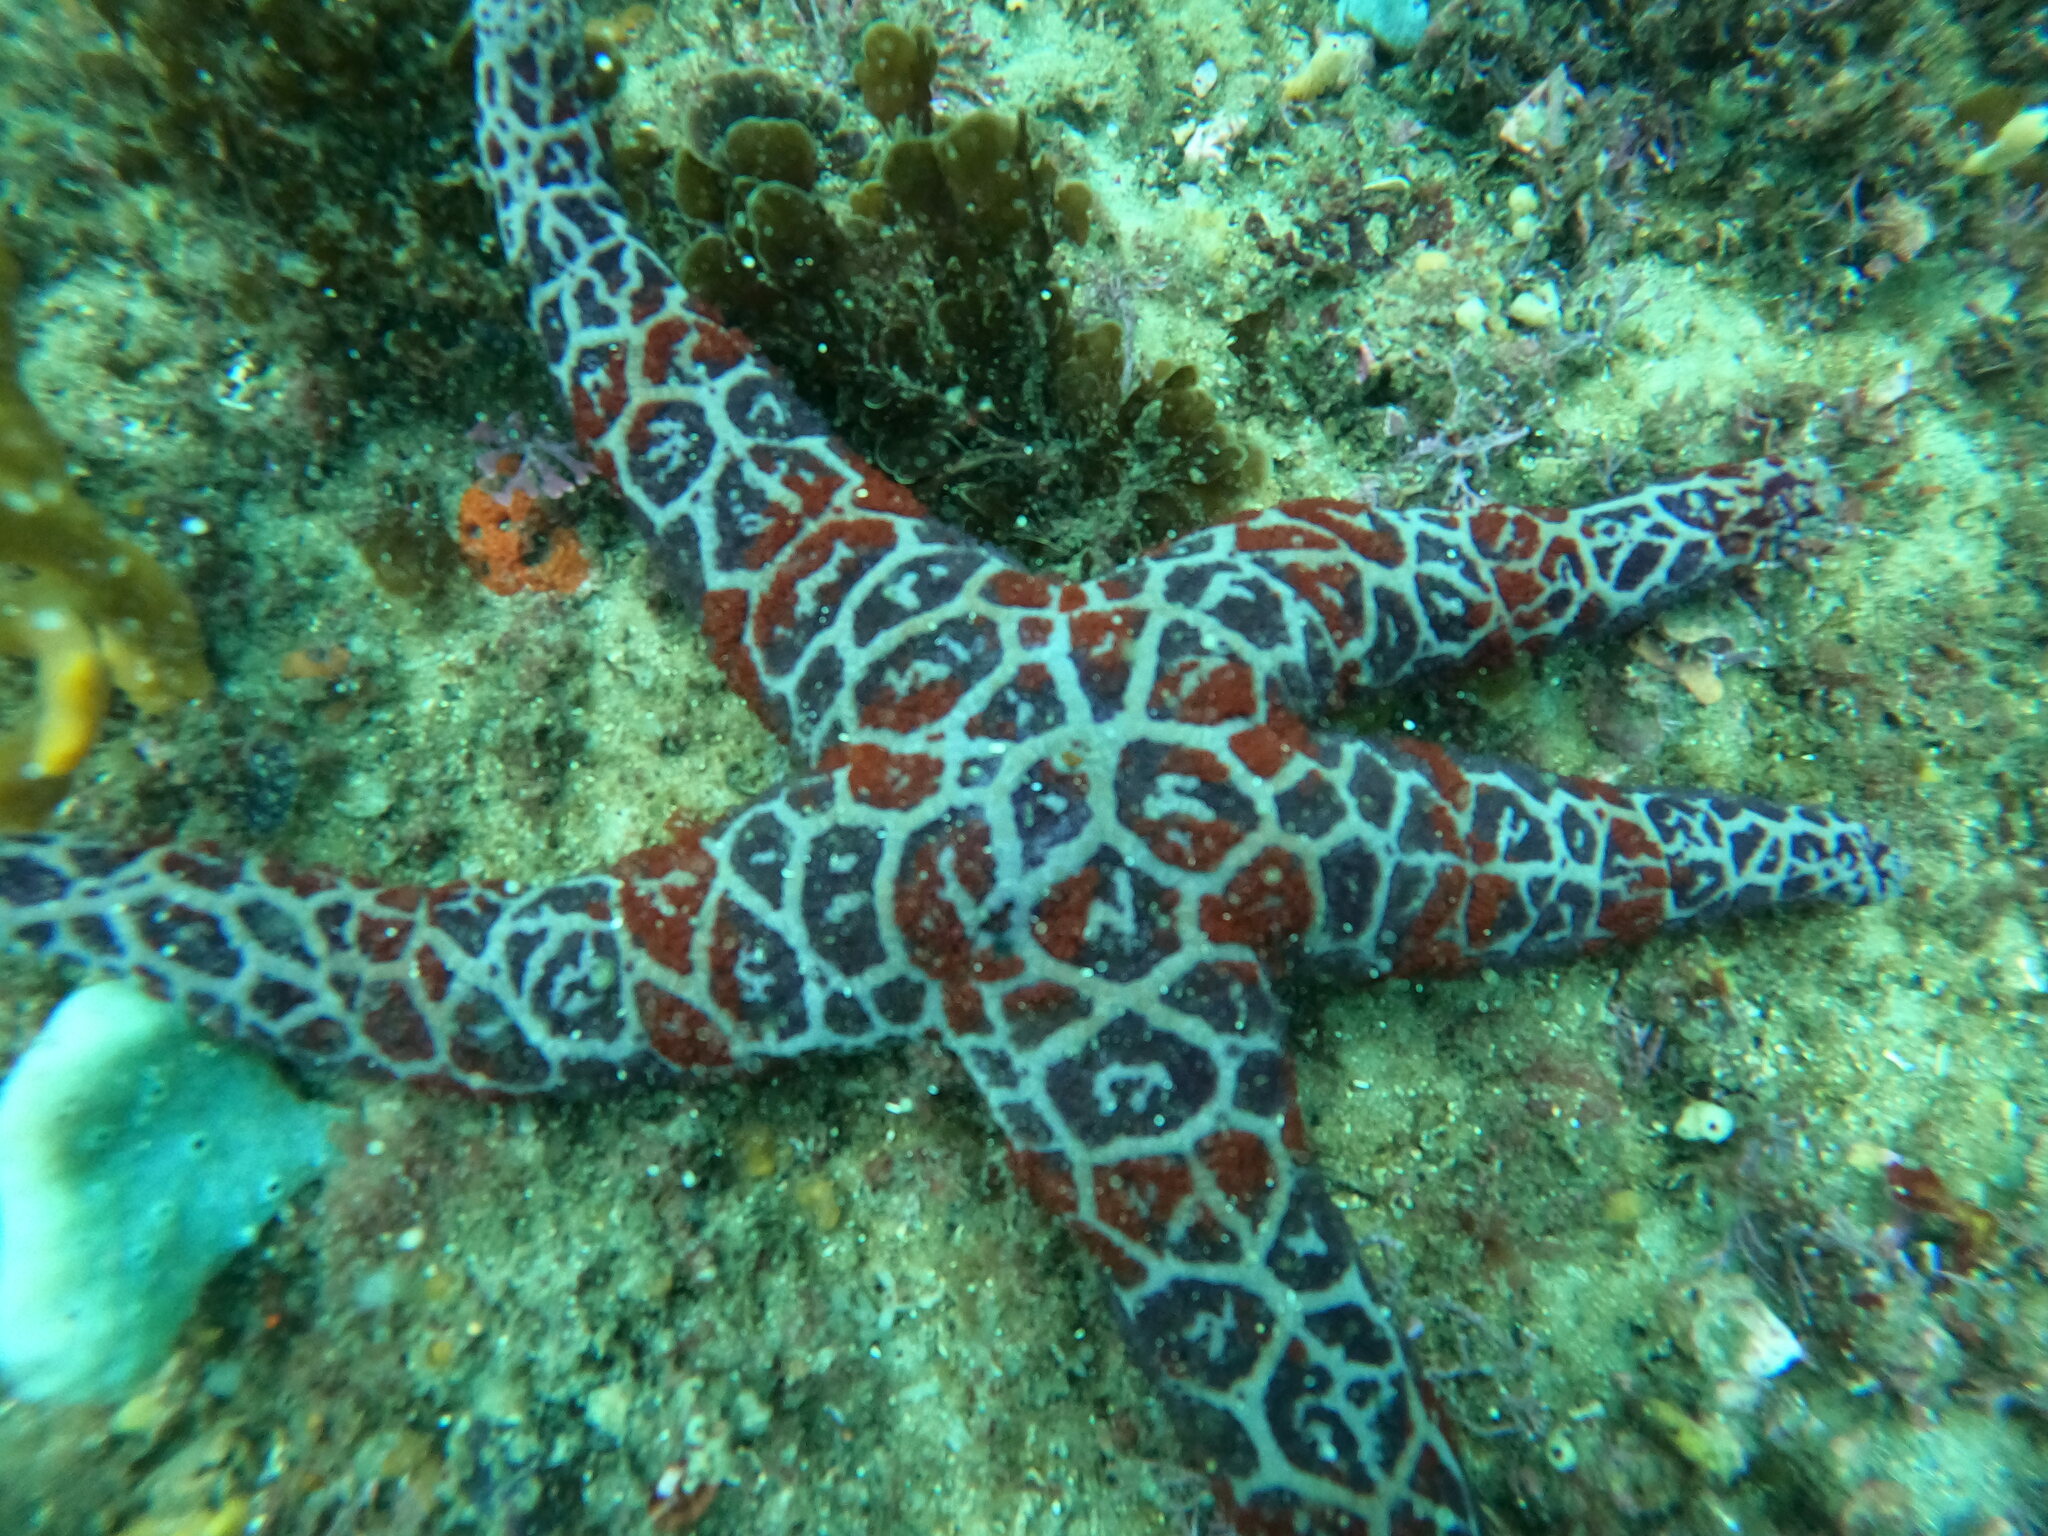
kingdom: Animalia
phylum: Echinodermata
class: Asteroidea
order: Spinulosida
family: Echinasteridae
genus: Plectaster
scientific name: Plectaster decanus
